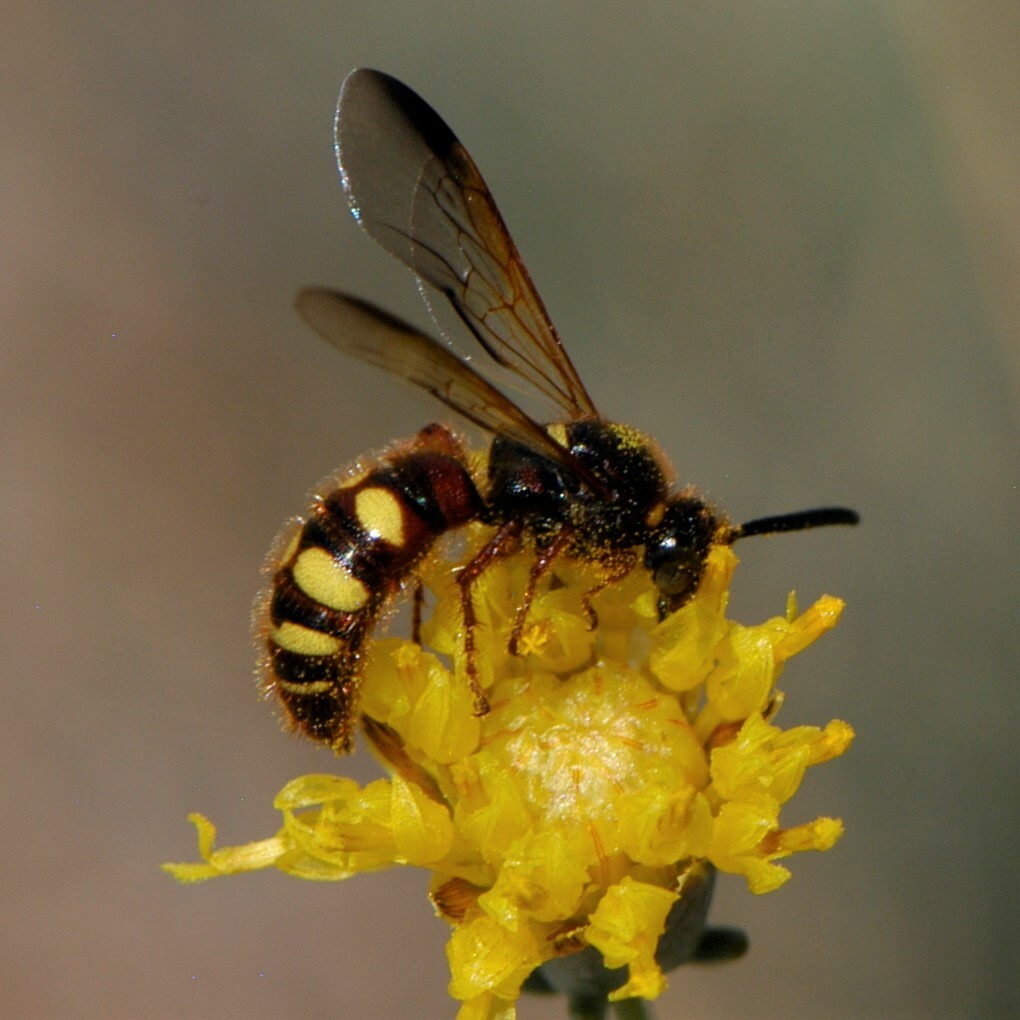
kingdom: Animalia
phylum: Arthropoda
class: Insecta
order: Hymenoptera
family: Scoliidae
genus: Scolia
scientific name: Scolia nobilitata
